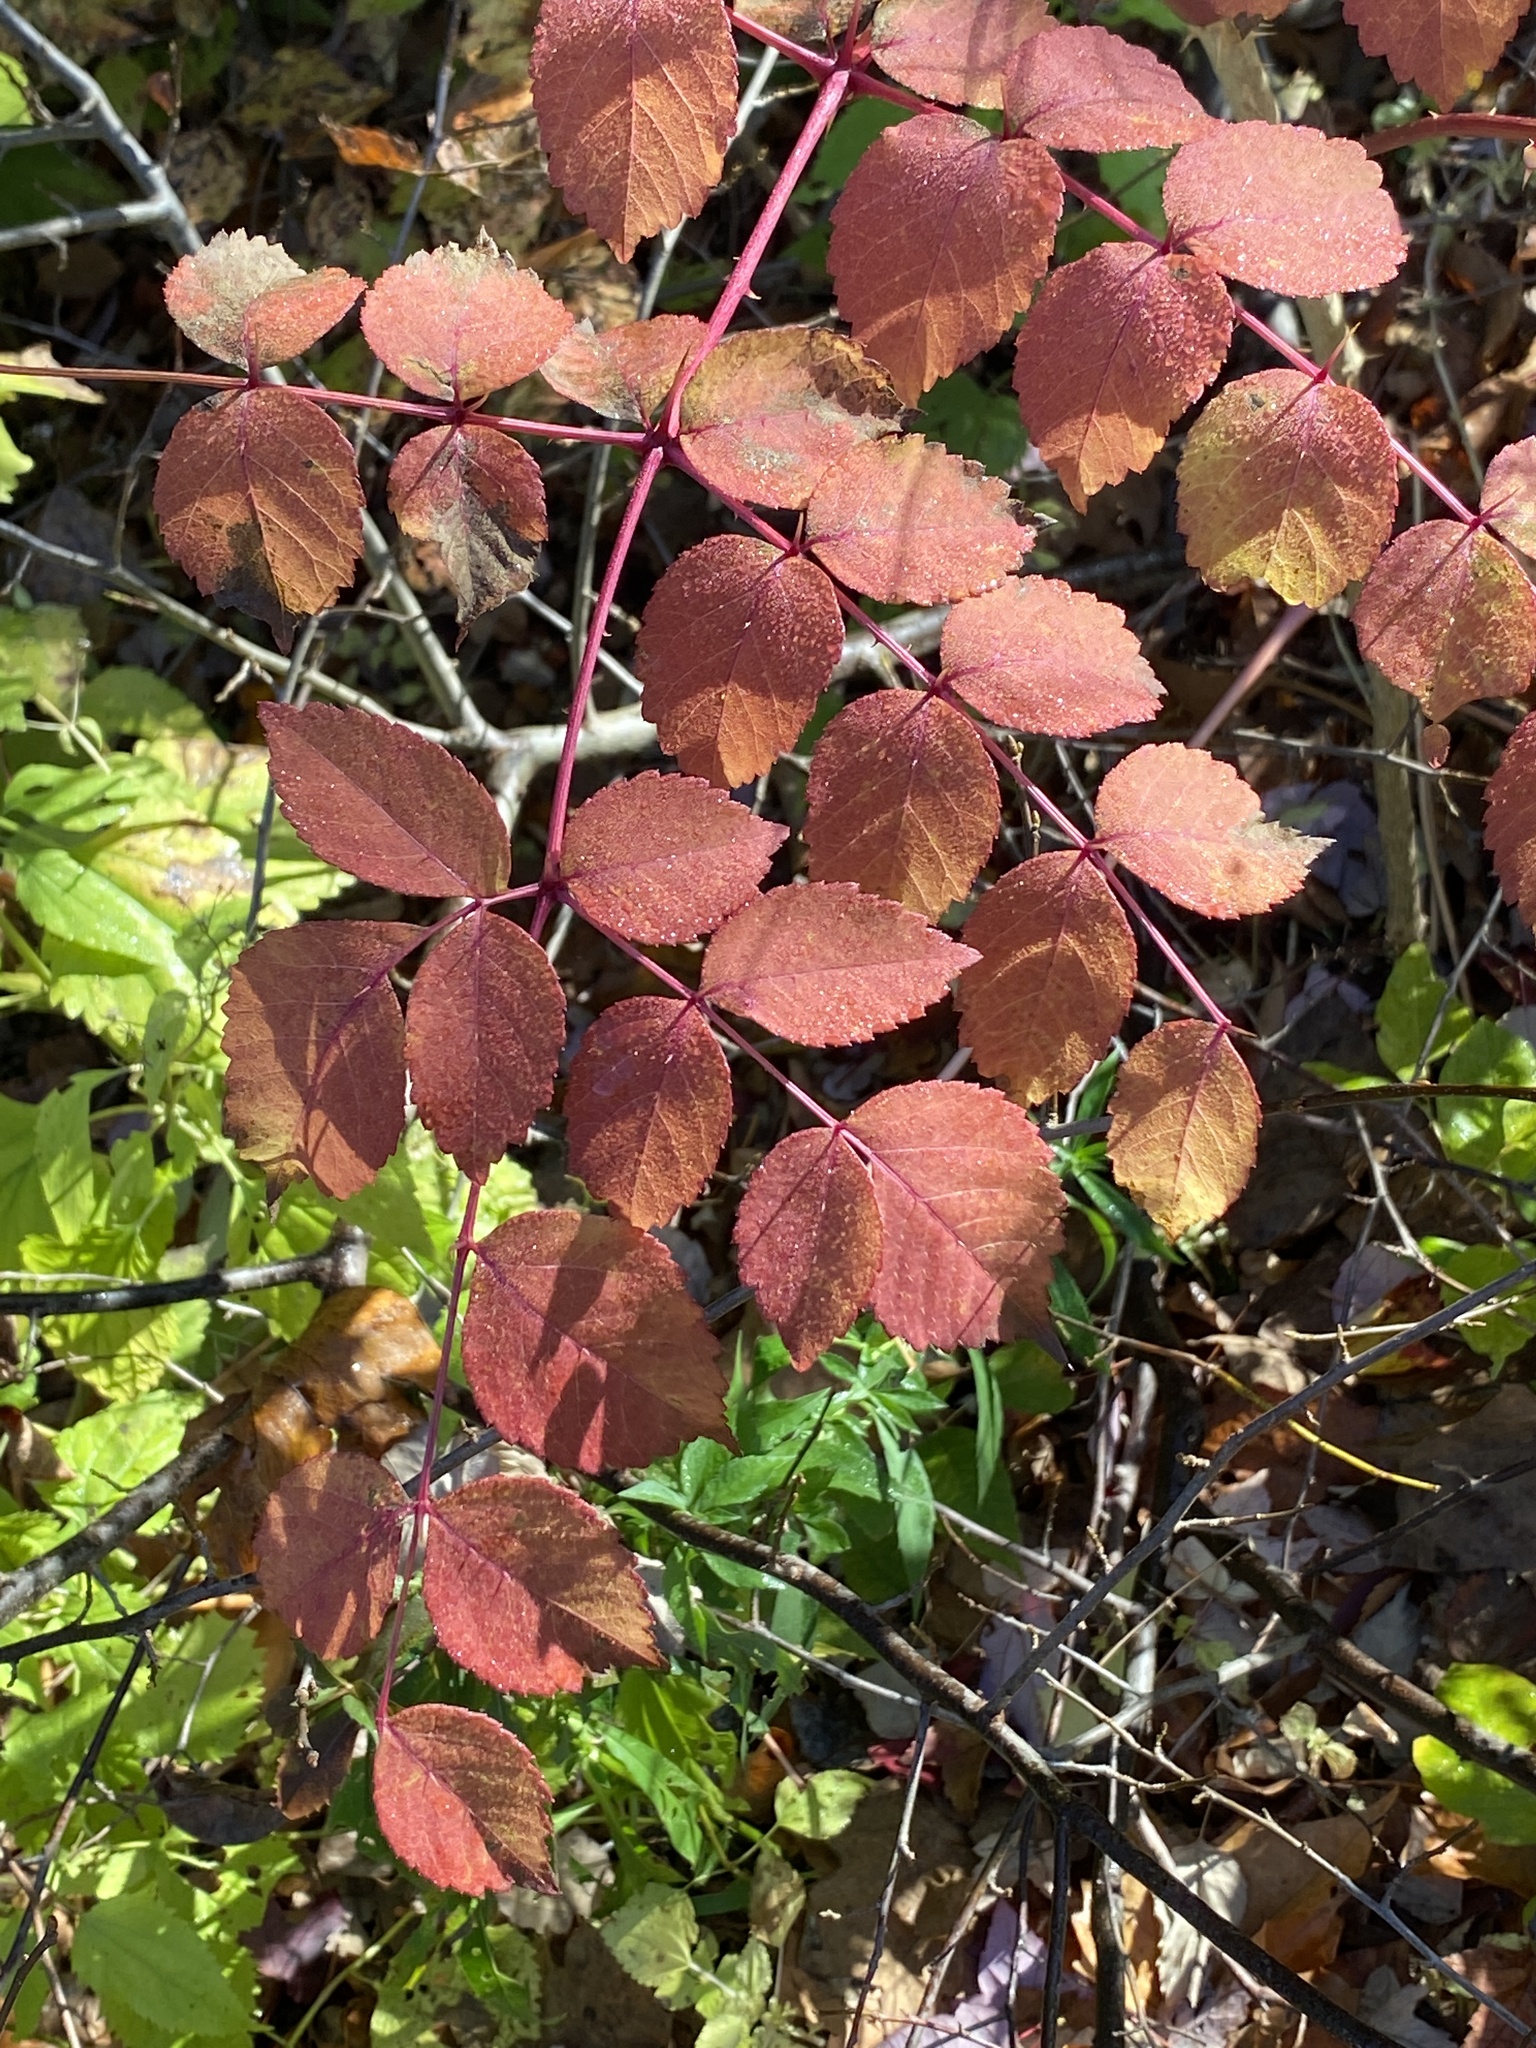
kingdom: Plantae
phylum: Tracheophyta
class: Magnoliopsida
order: Apiales
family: Araliaceae
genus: Aralia
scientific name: Aralia elata
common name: Japanese angelica-tree
